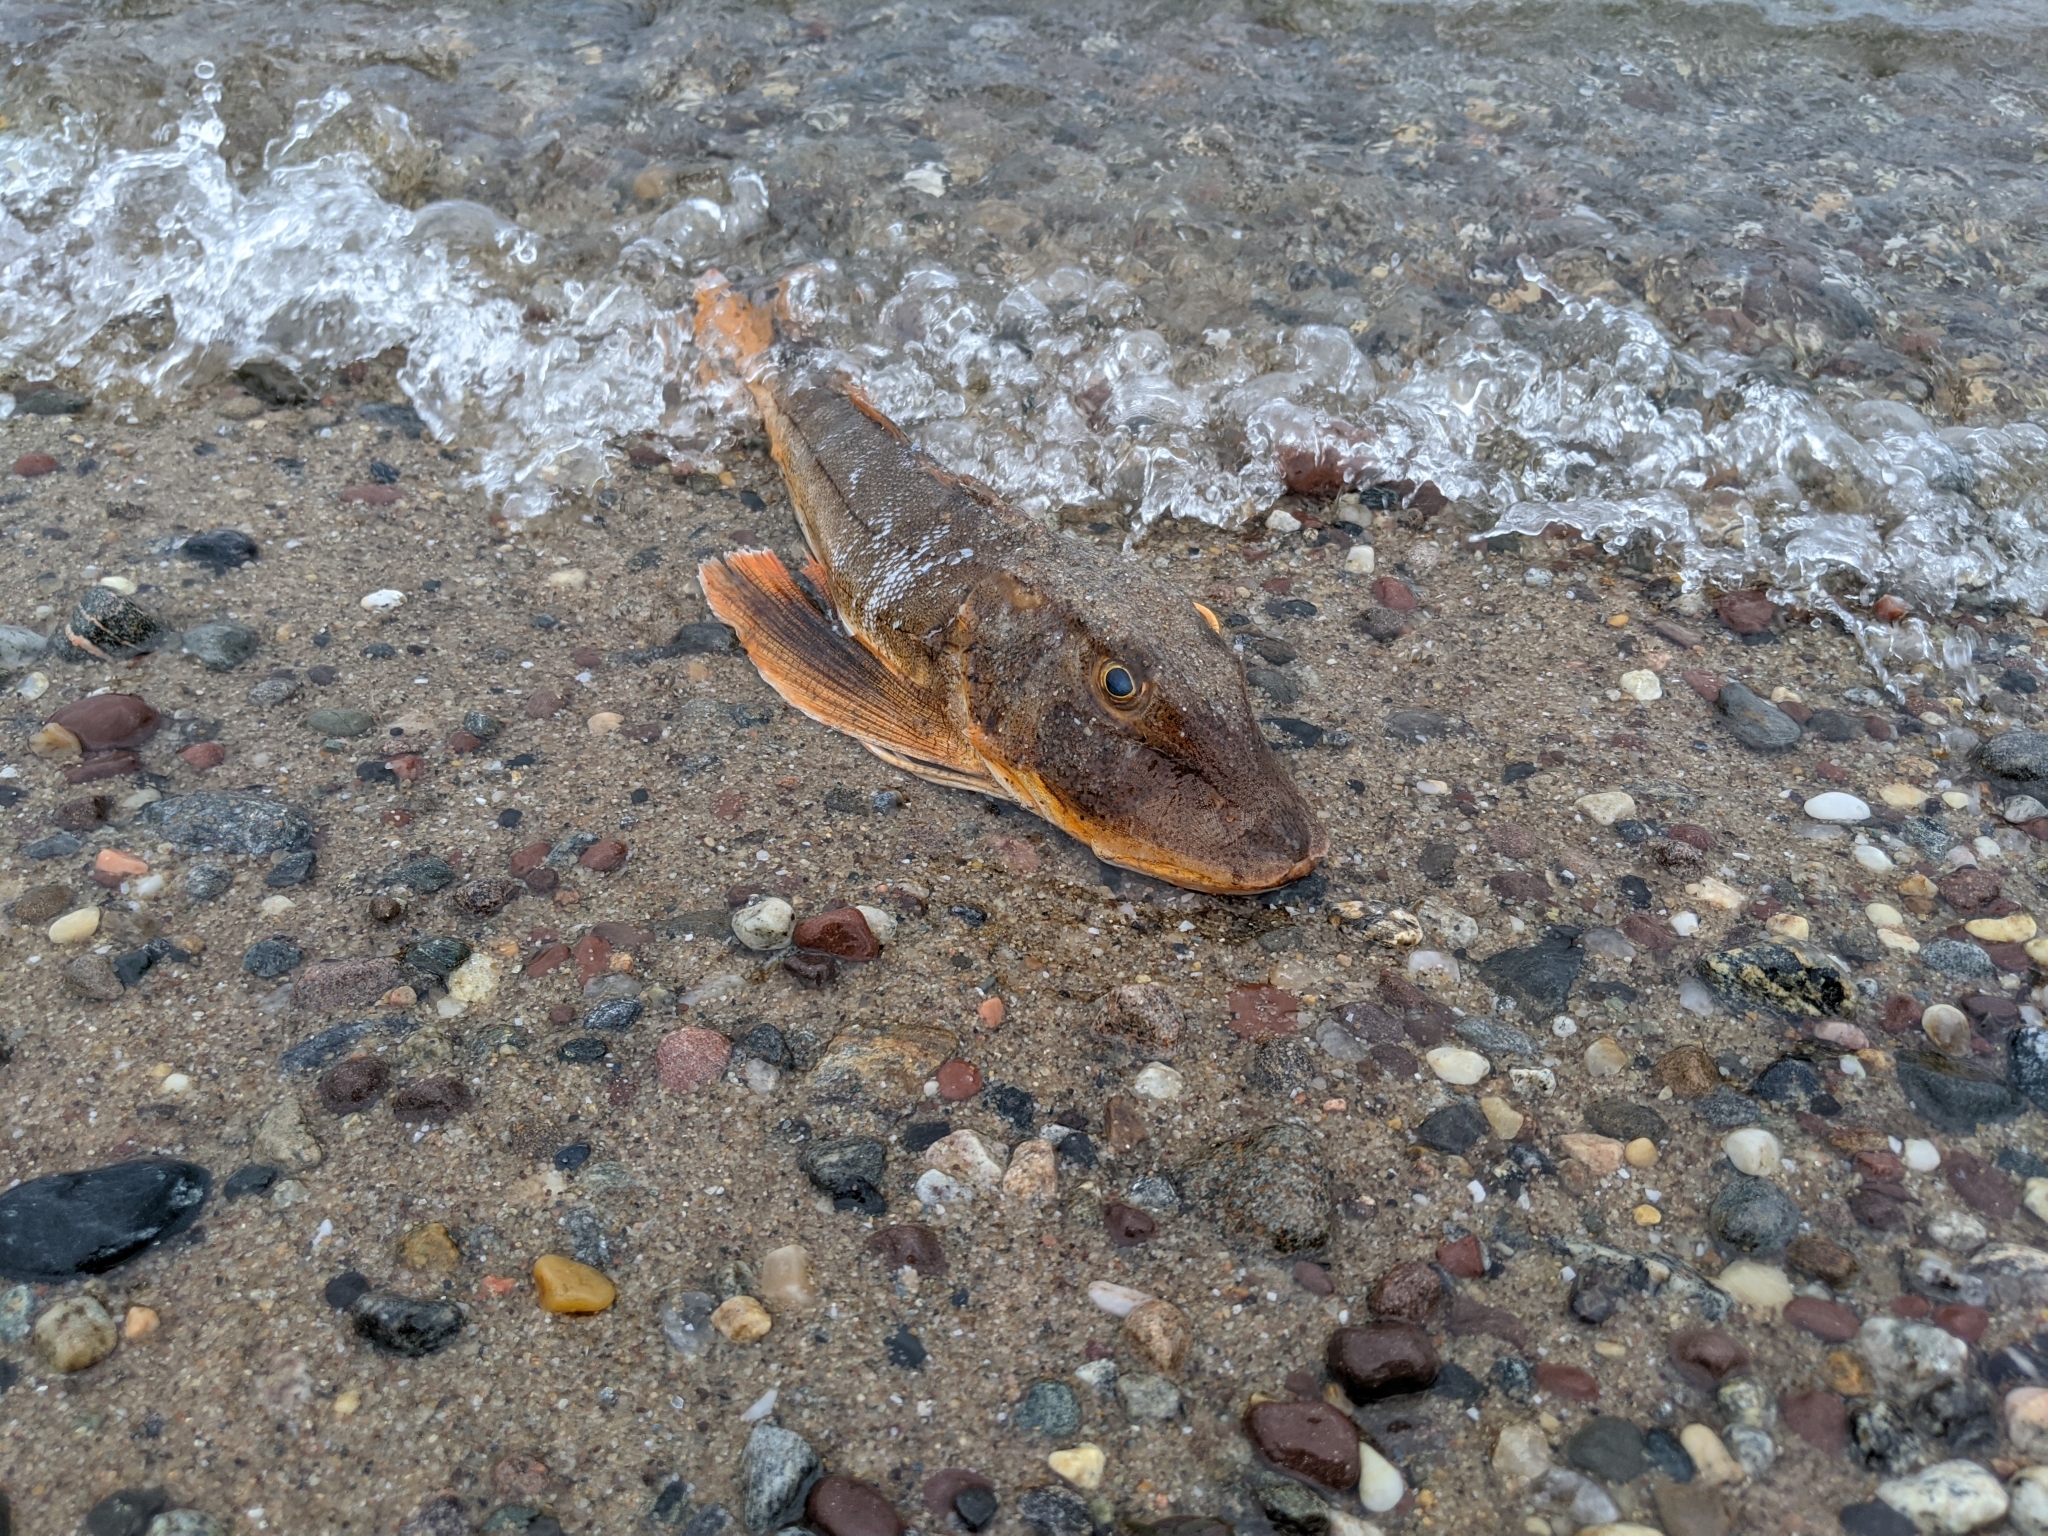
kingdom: Animalia
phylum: Chordata
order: Scorpaeniformes
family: Triglidae
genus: Prionotus
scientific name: Prionotus evolans
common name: Striped searobin
